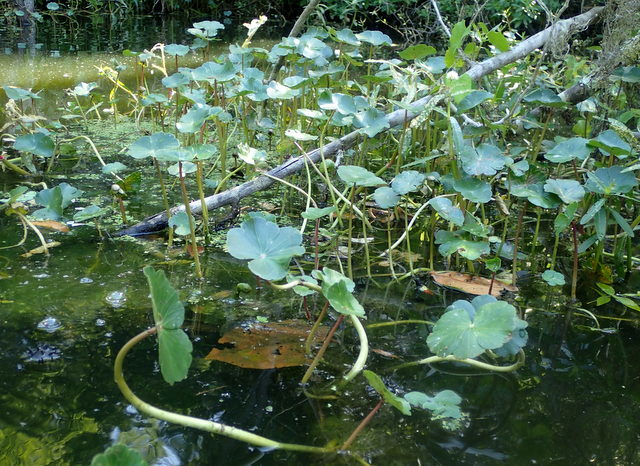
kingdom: Plantae
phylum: Tracheophyta
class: Magnoliopsida
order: Apiales
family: Araliaceae
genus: Hydrocotyle
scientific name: Hydrocotyle ranunculoides
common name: Floating pennywort
